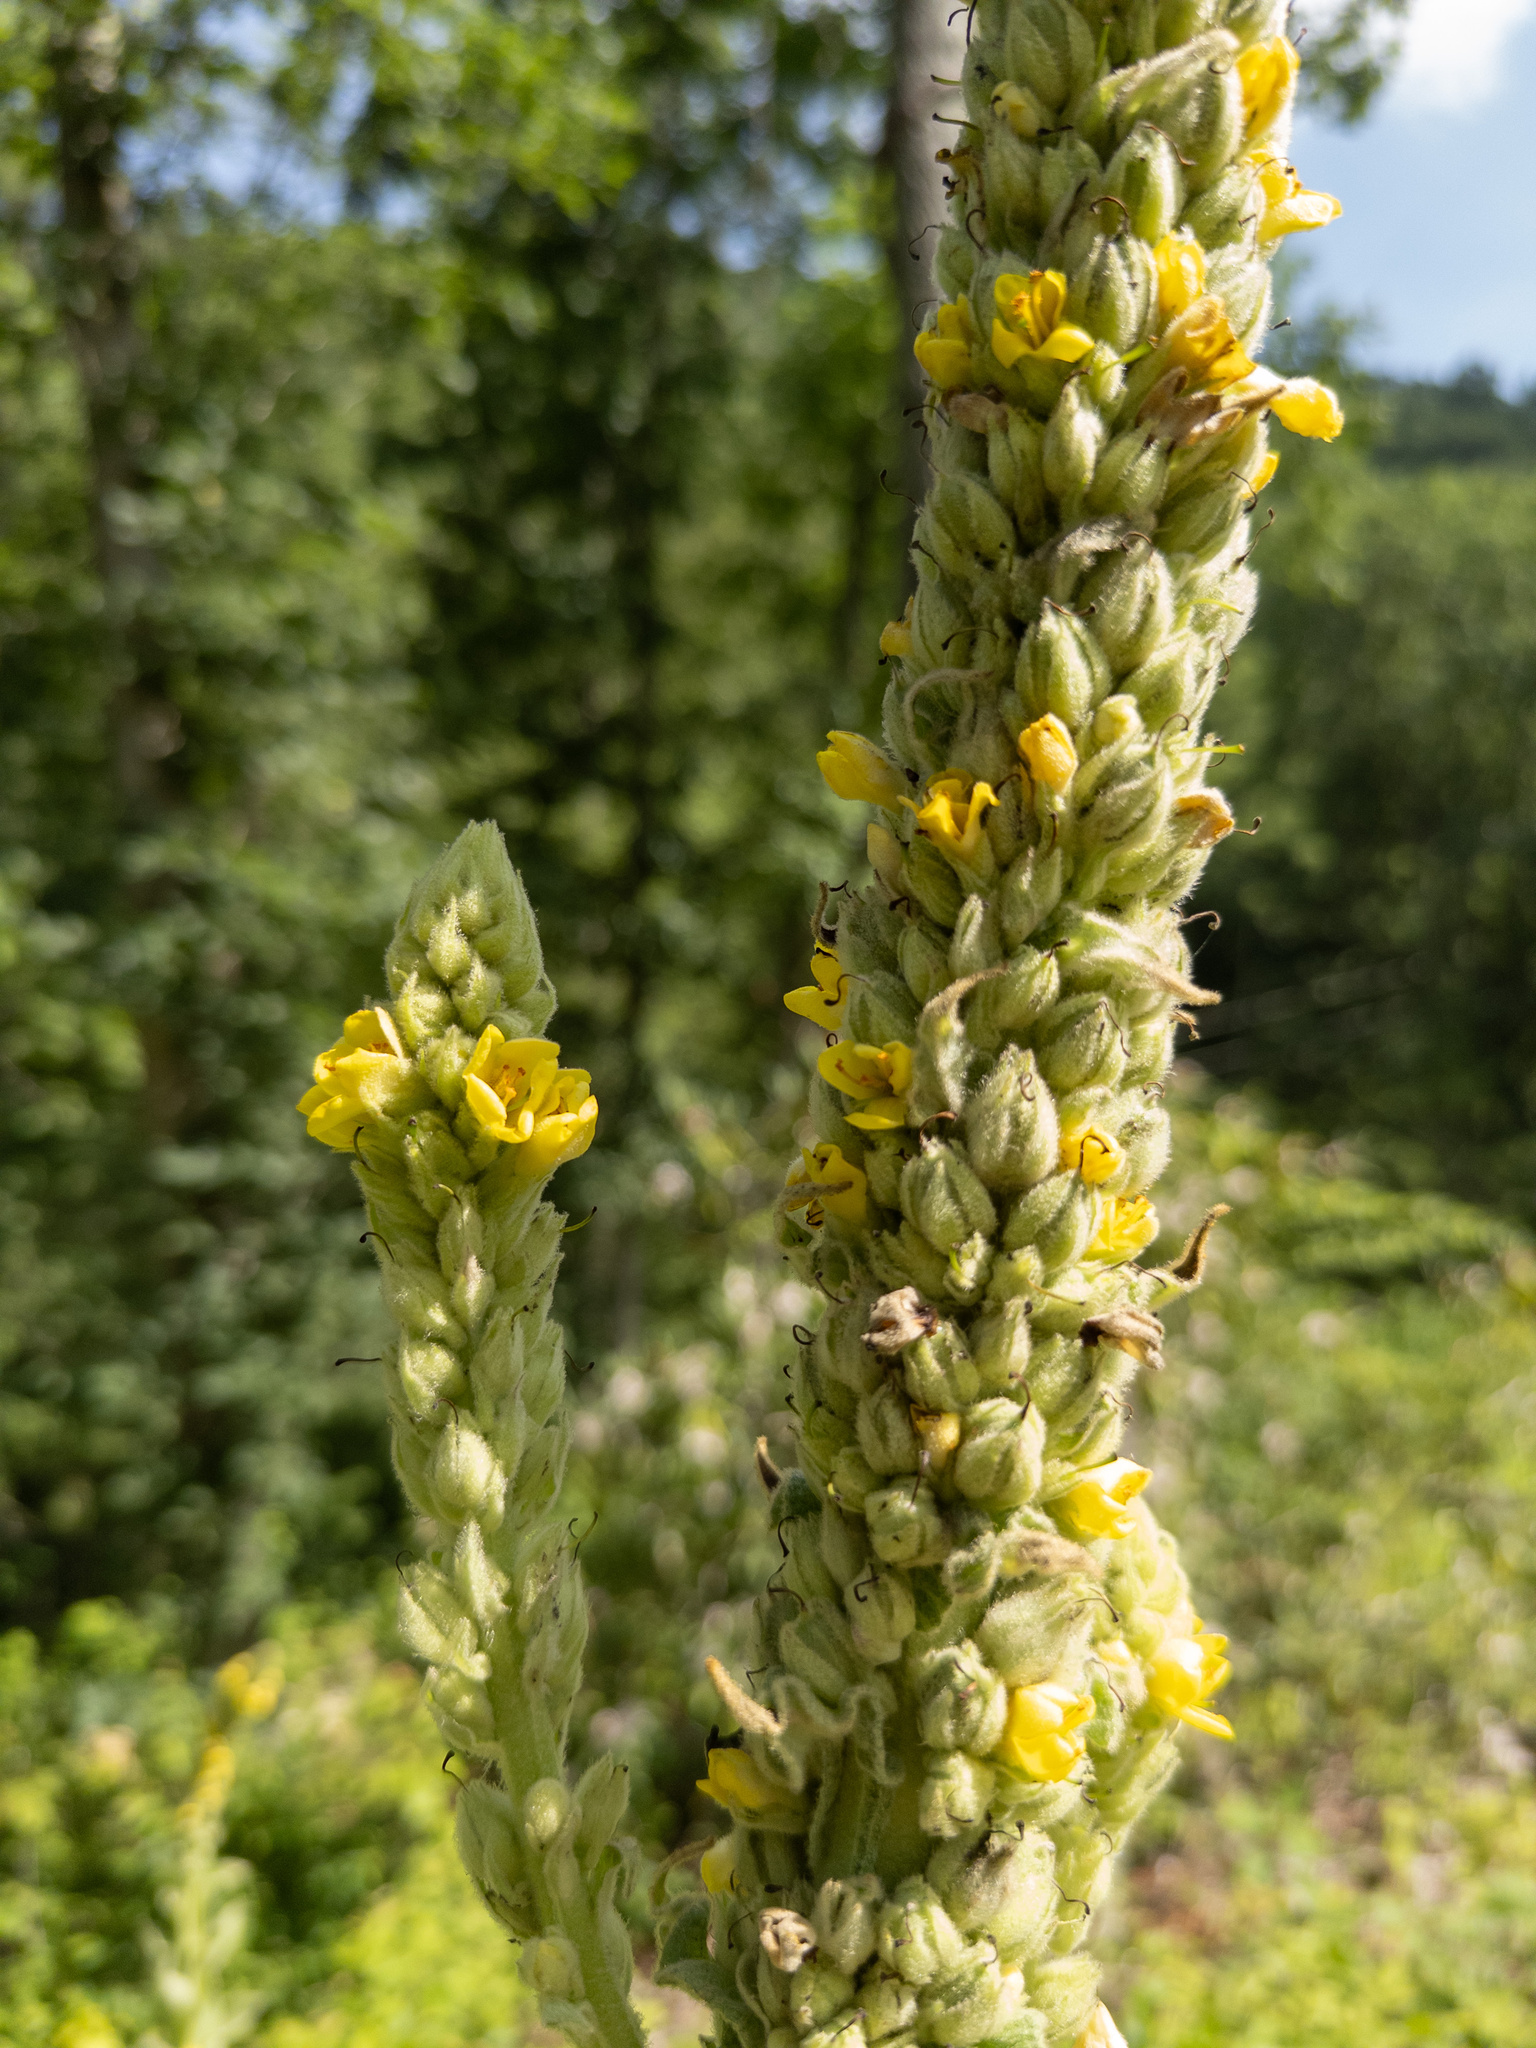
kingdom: Plantae
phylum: Tracheophyta
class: Magnoliopsida
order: Lamiales
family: Scrophulariaceae
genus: Verbascum
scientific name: Verbascum thapsus
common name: Common mullein
